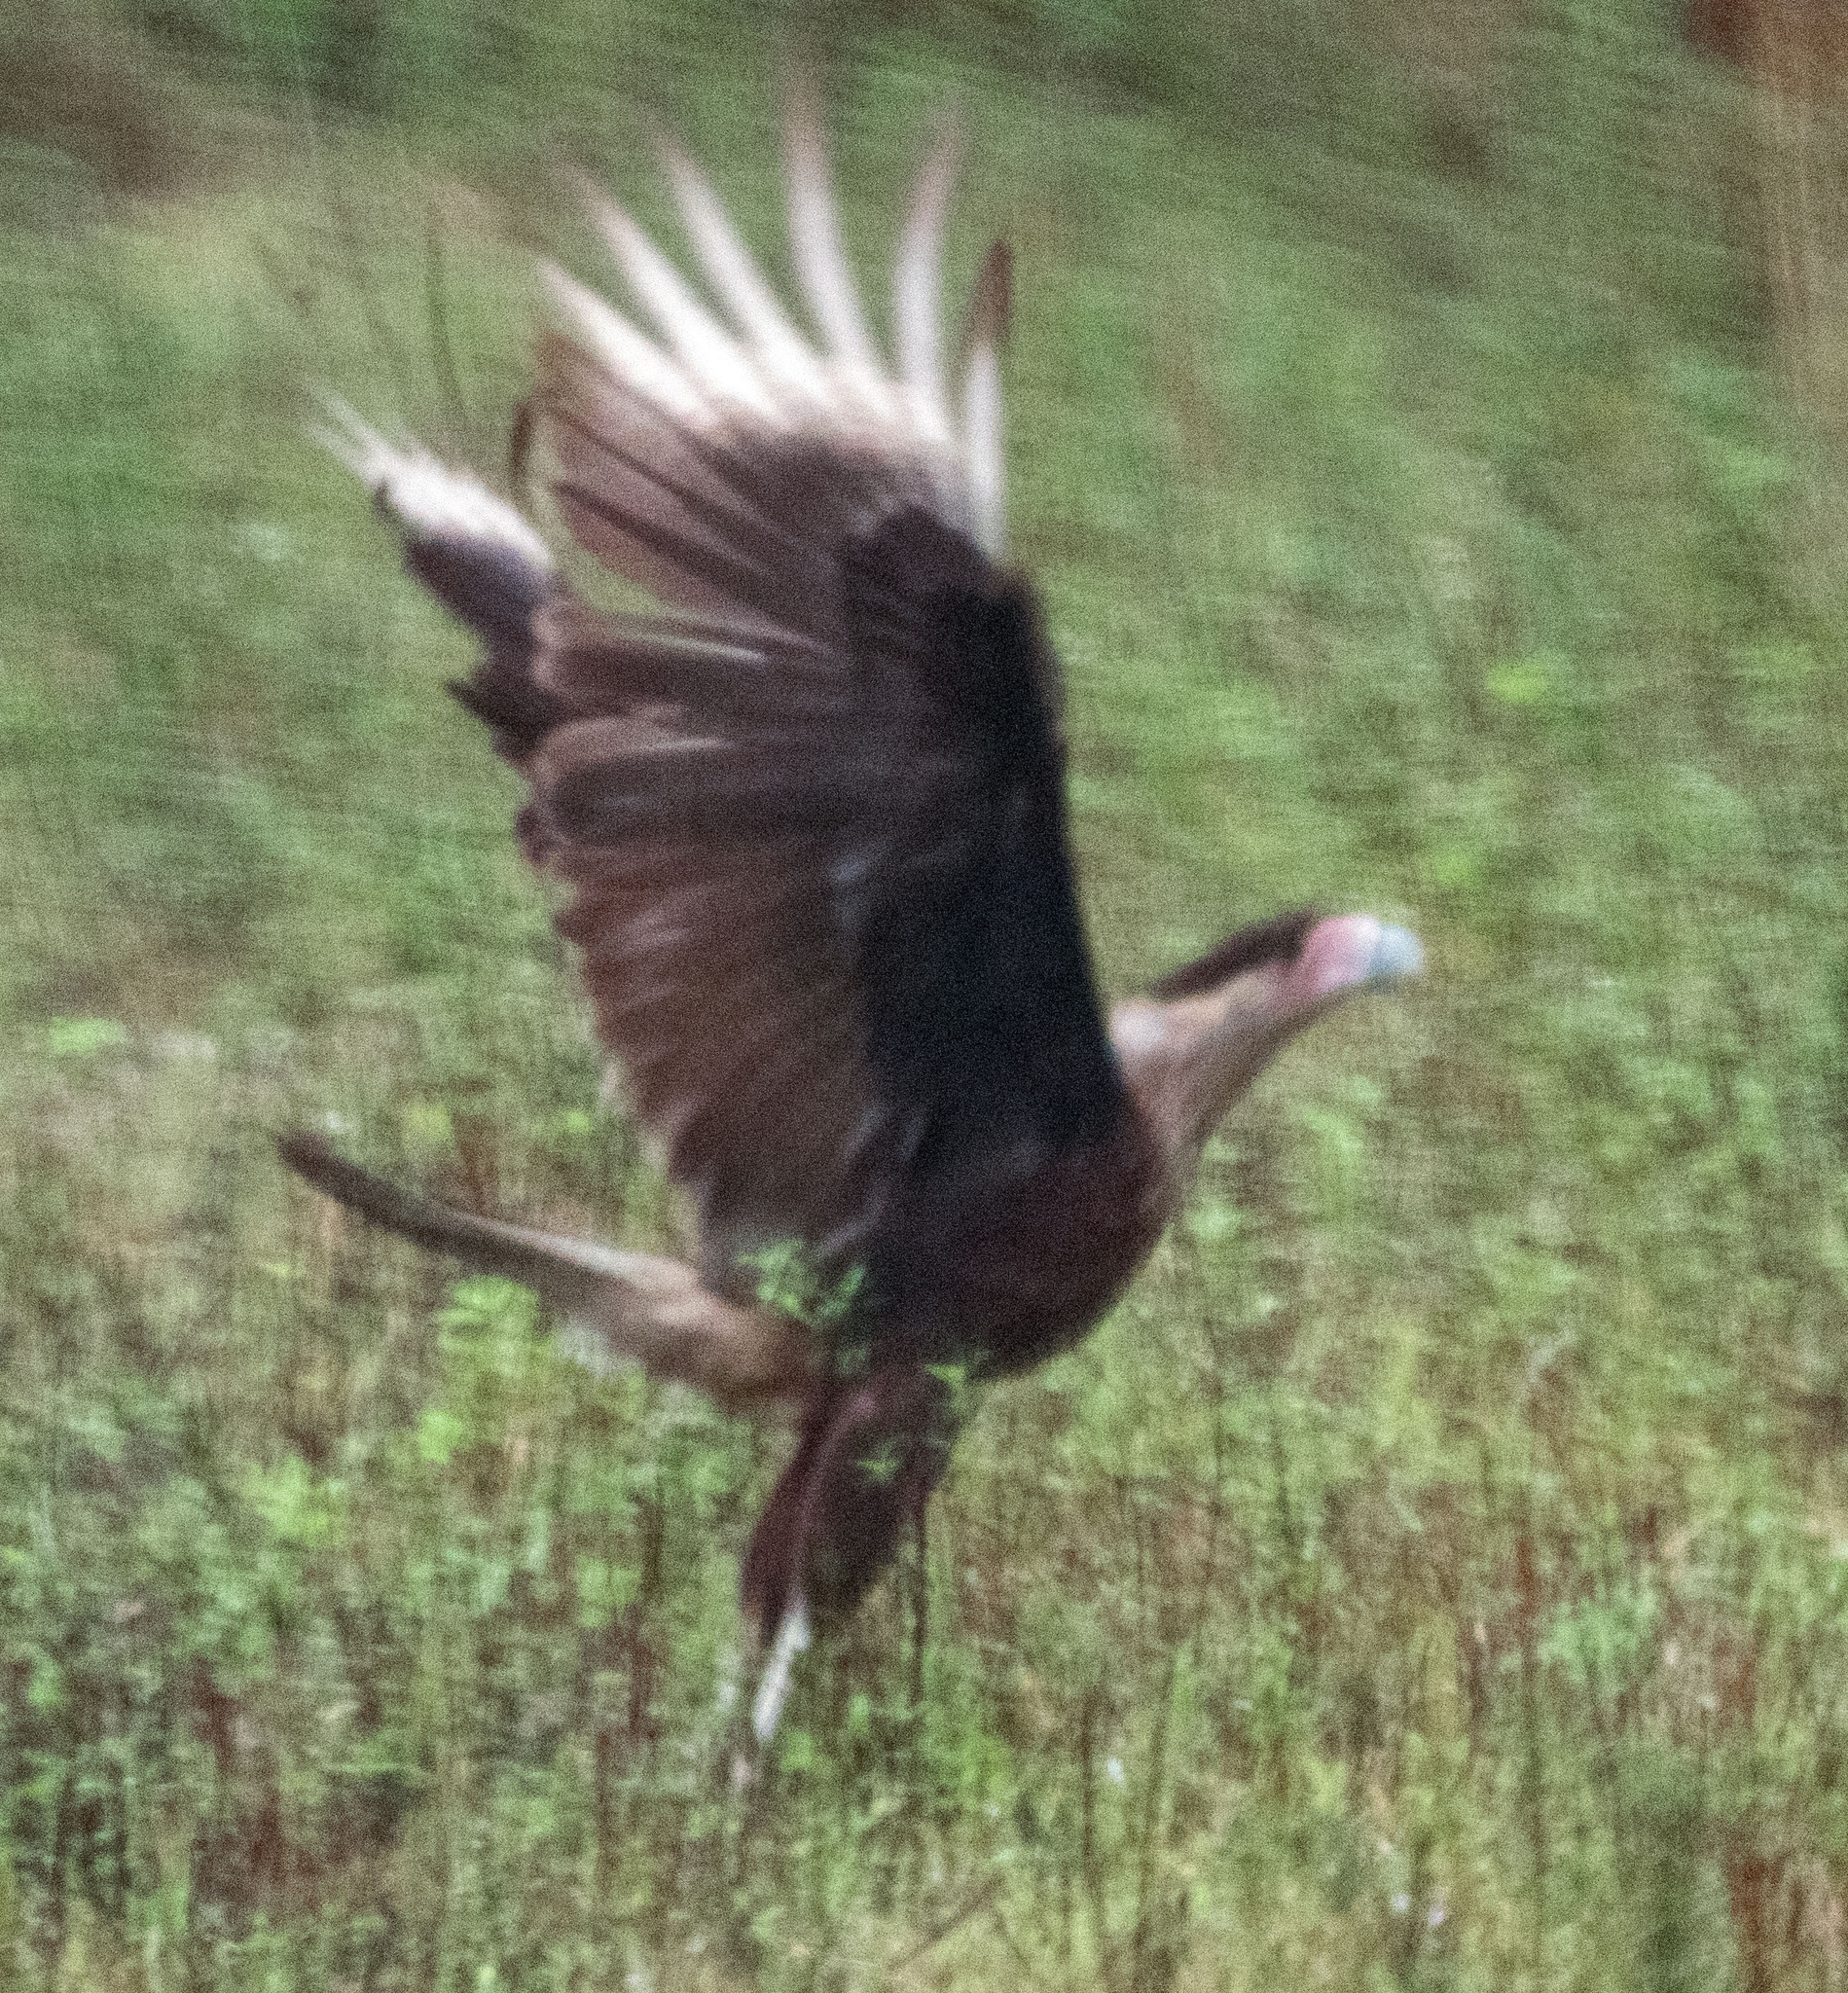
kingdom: Animalia
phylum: Chordata
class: Aves
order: Falconiformes
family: Falconidae
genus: Caracara
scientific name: Caracara plancus
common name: Southern caracara
